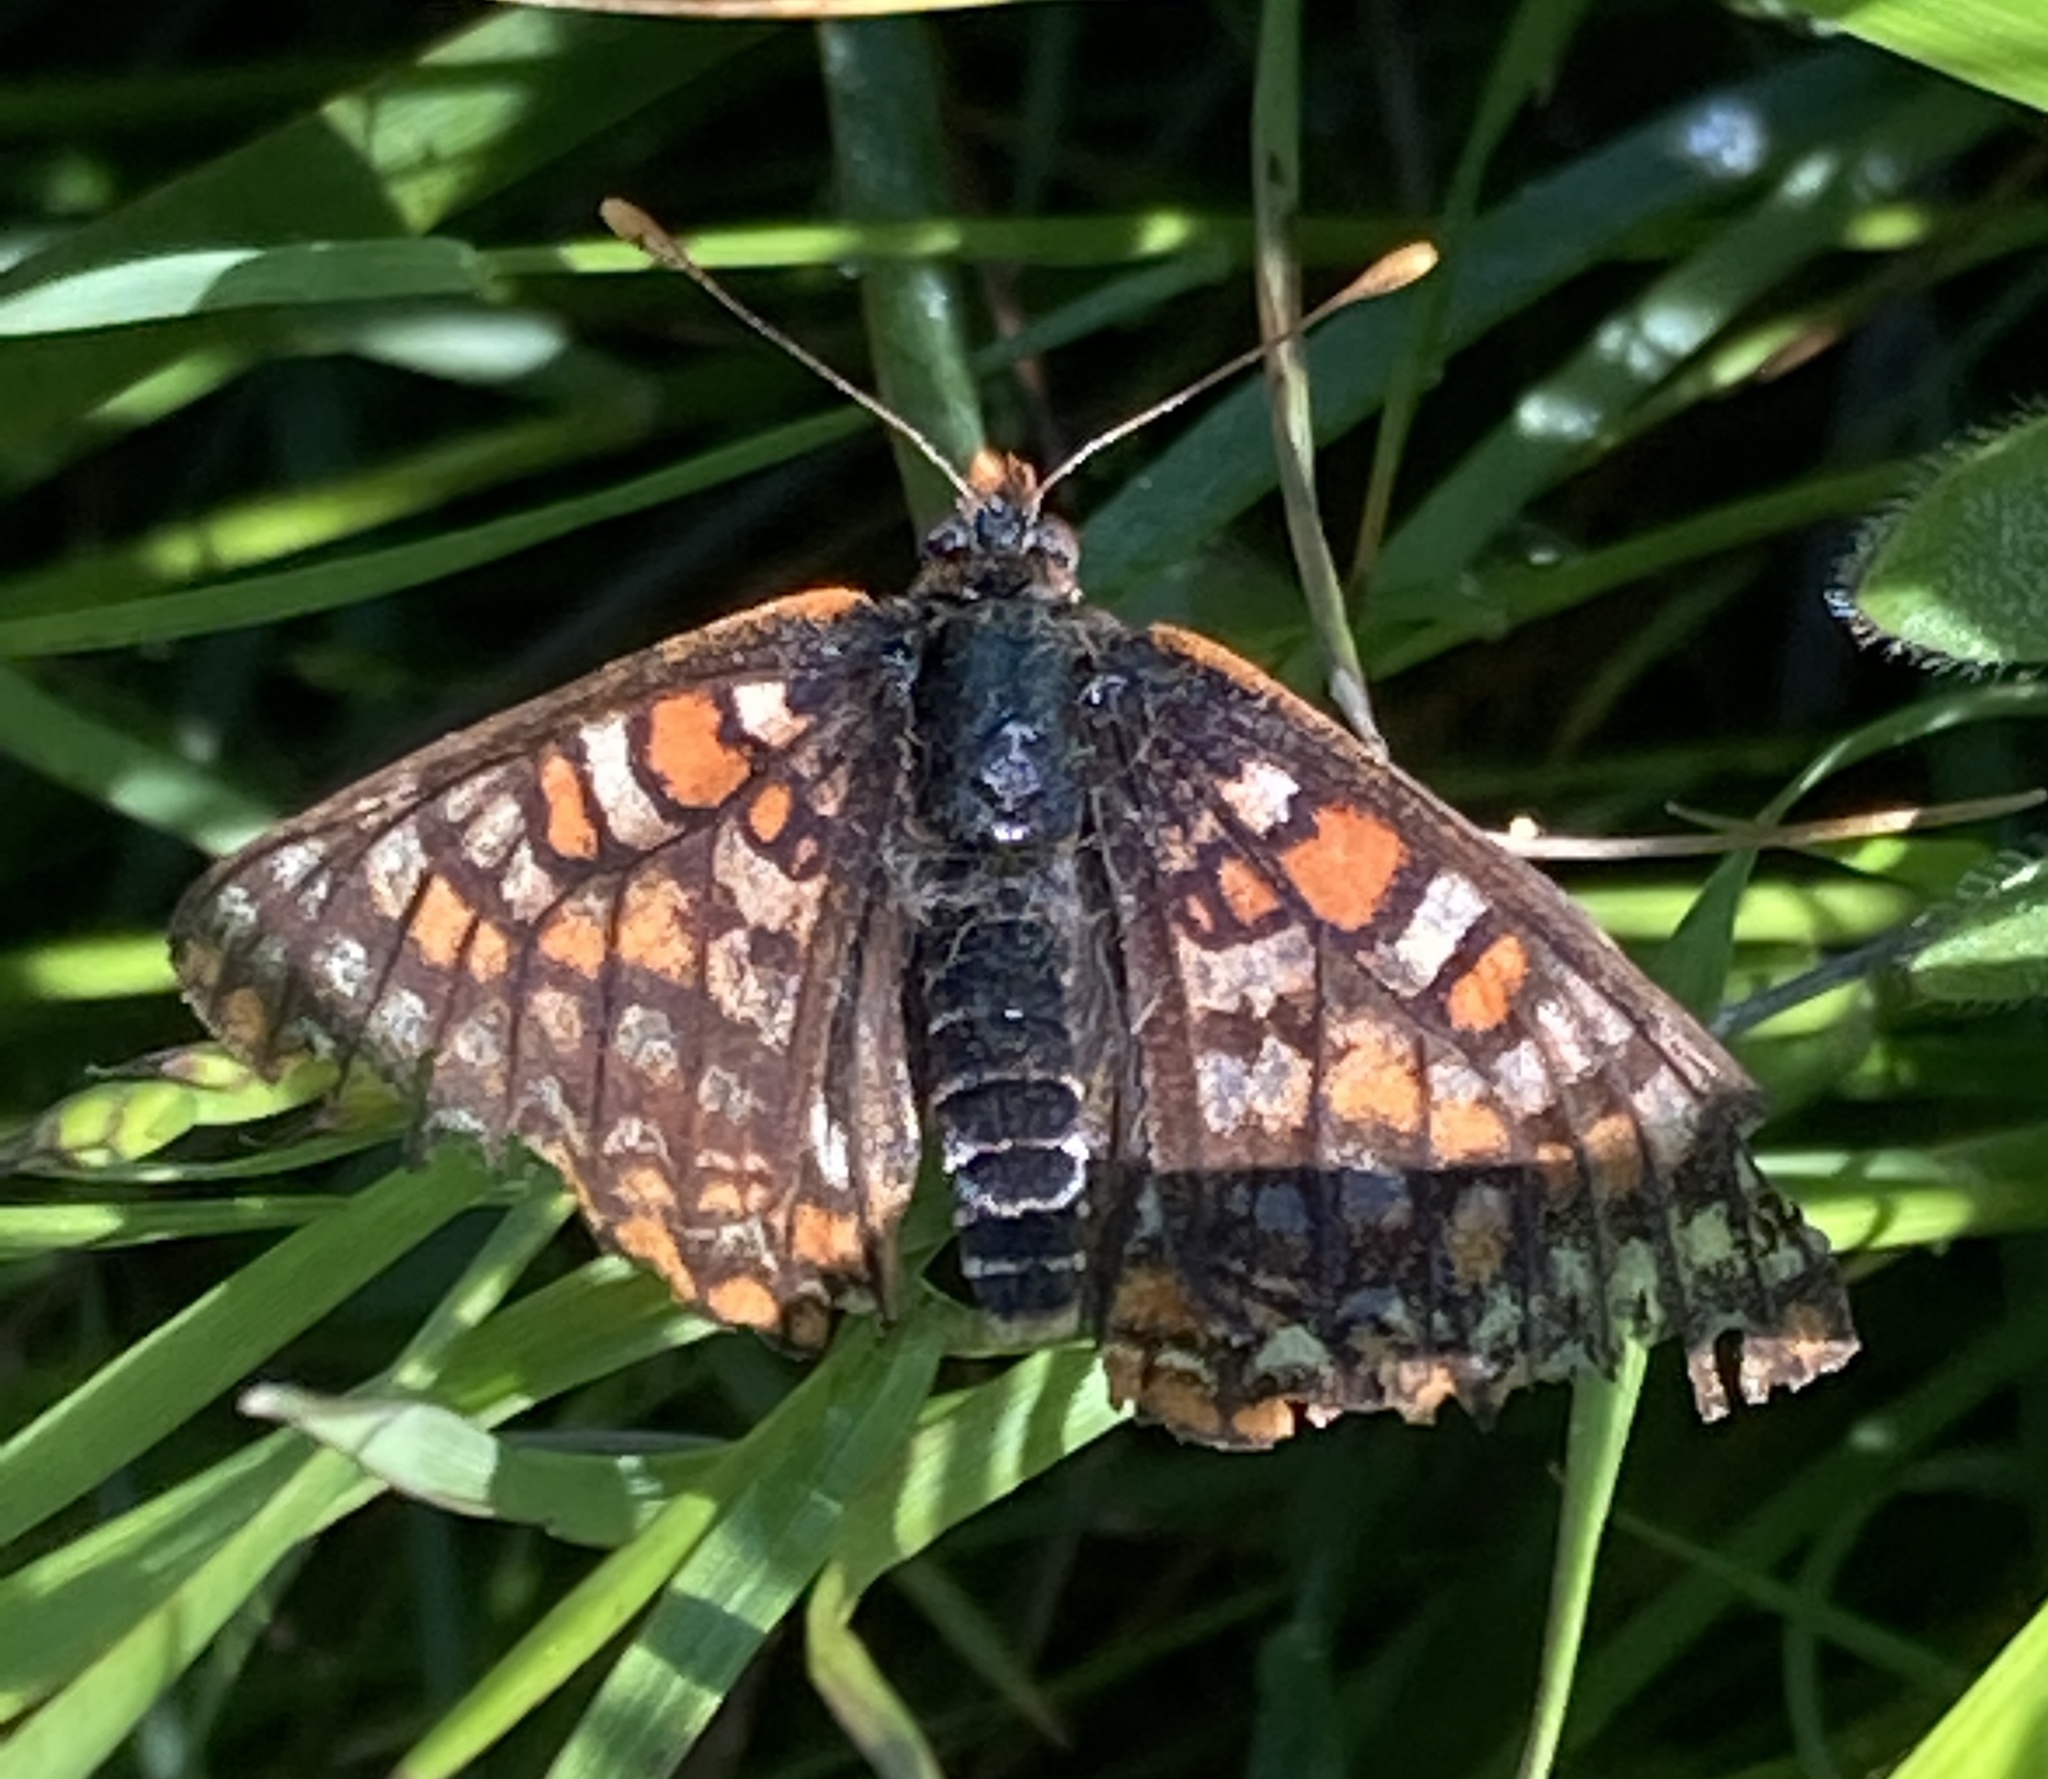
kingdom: Animalia
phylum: Arthropoda
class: Insecta
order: Lepidoptera
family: Nymphalidae
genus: Occidryas
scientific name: Occidryas editha
